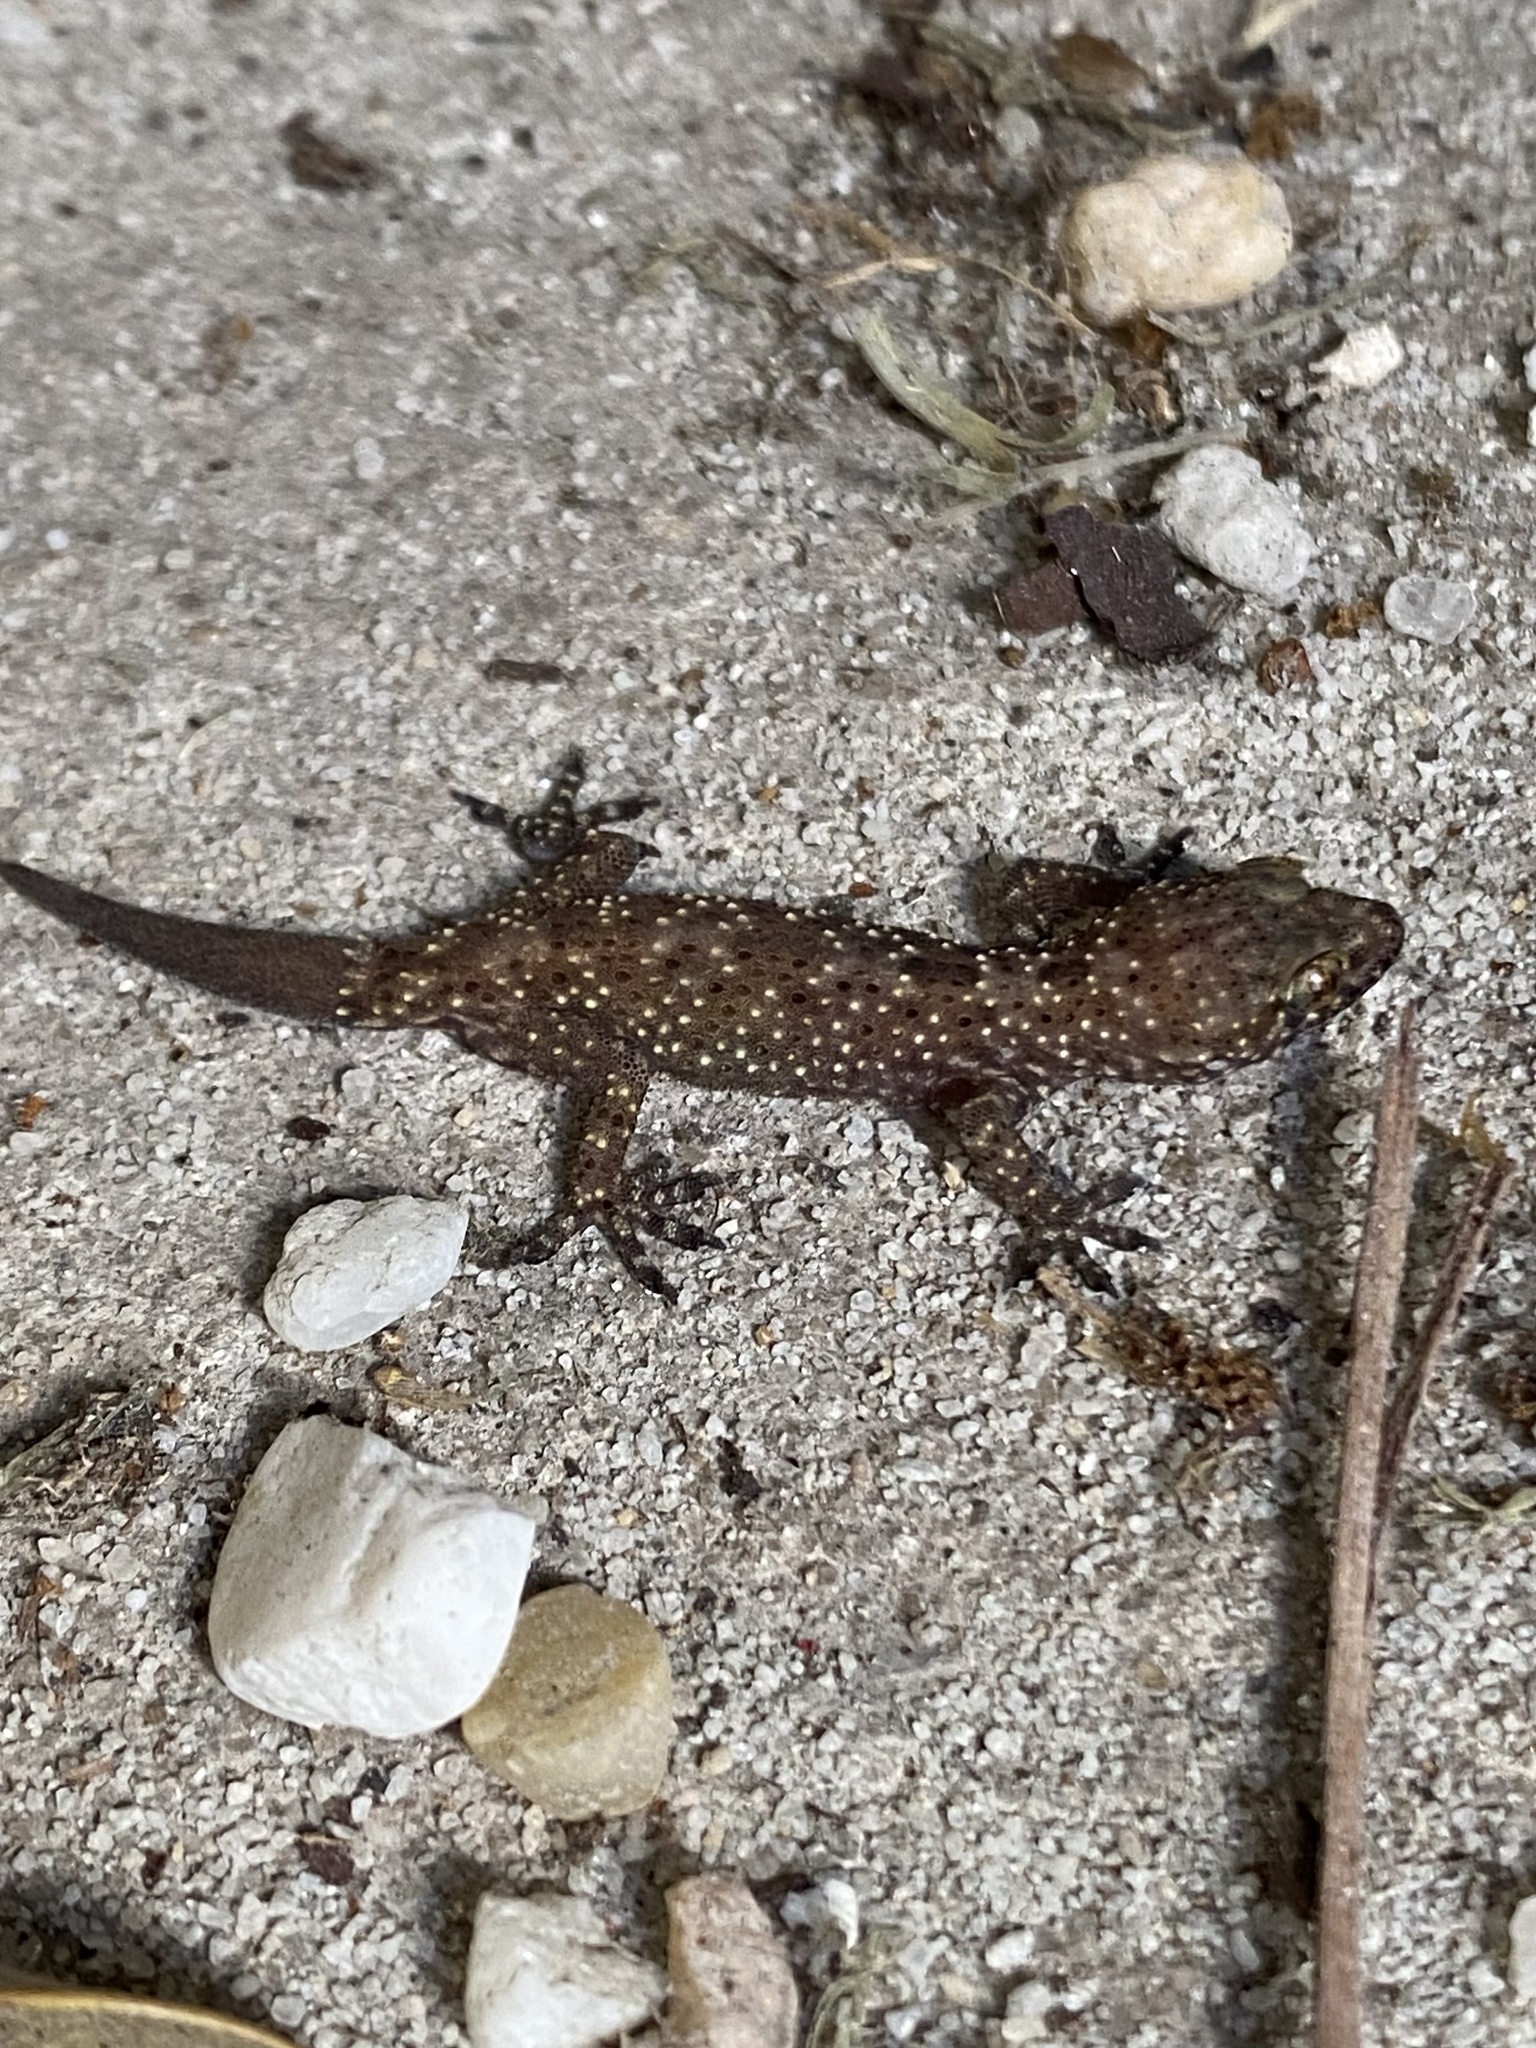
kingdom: Animalia
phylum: Chordata
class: Squamata
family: Gekkonidae
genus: Hemidactylus
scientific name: Hemidactylus turcicus
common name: Turkish gecko
